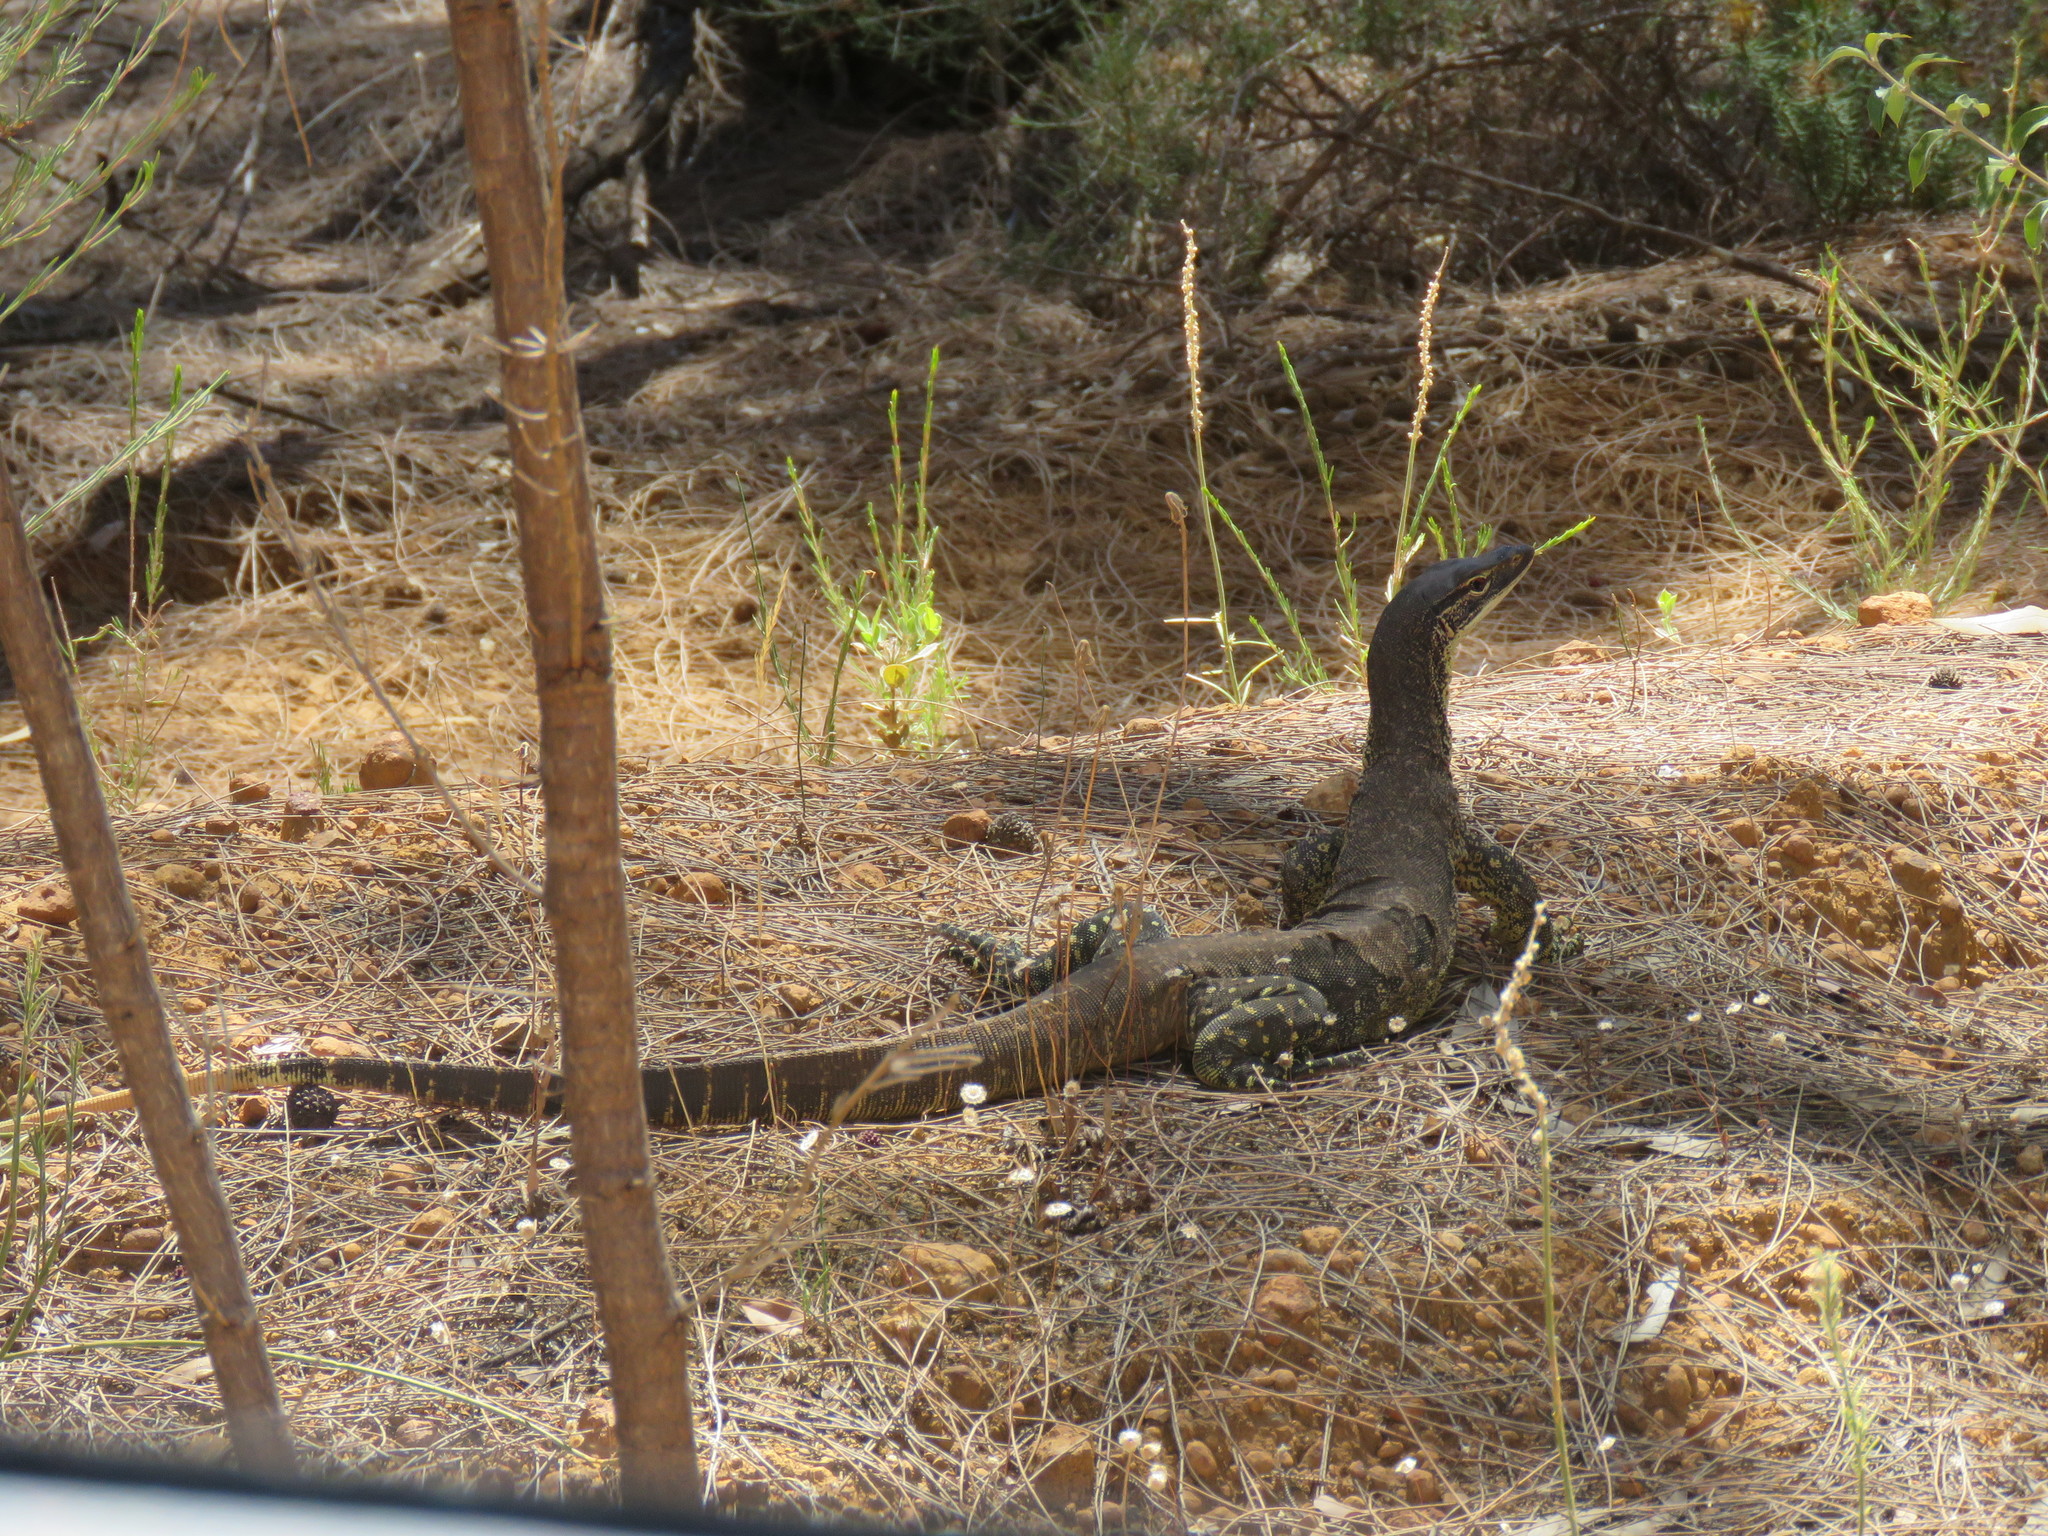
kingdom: Animalia
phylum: Chordata
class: Squamata
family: Varanidae
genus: Varanus
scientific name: Varanus gouldii
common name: Gould's goanna
